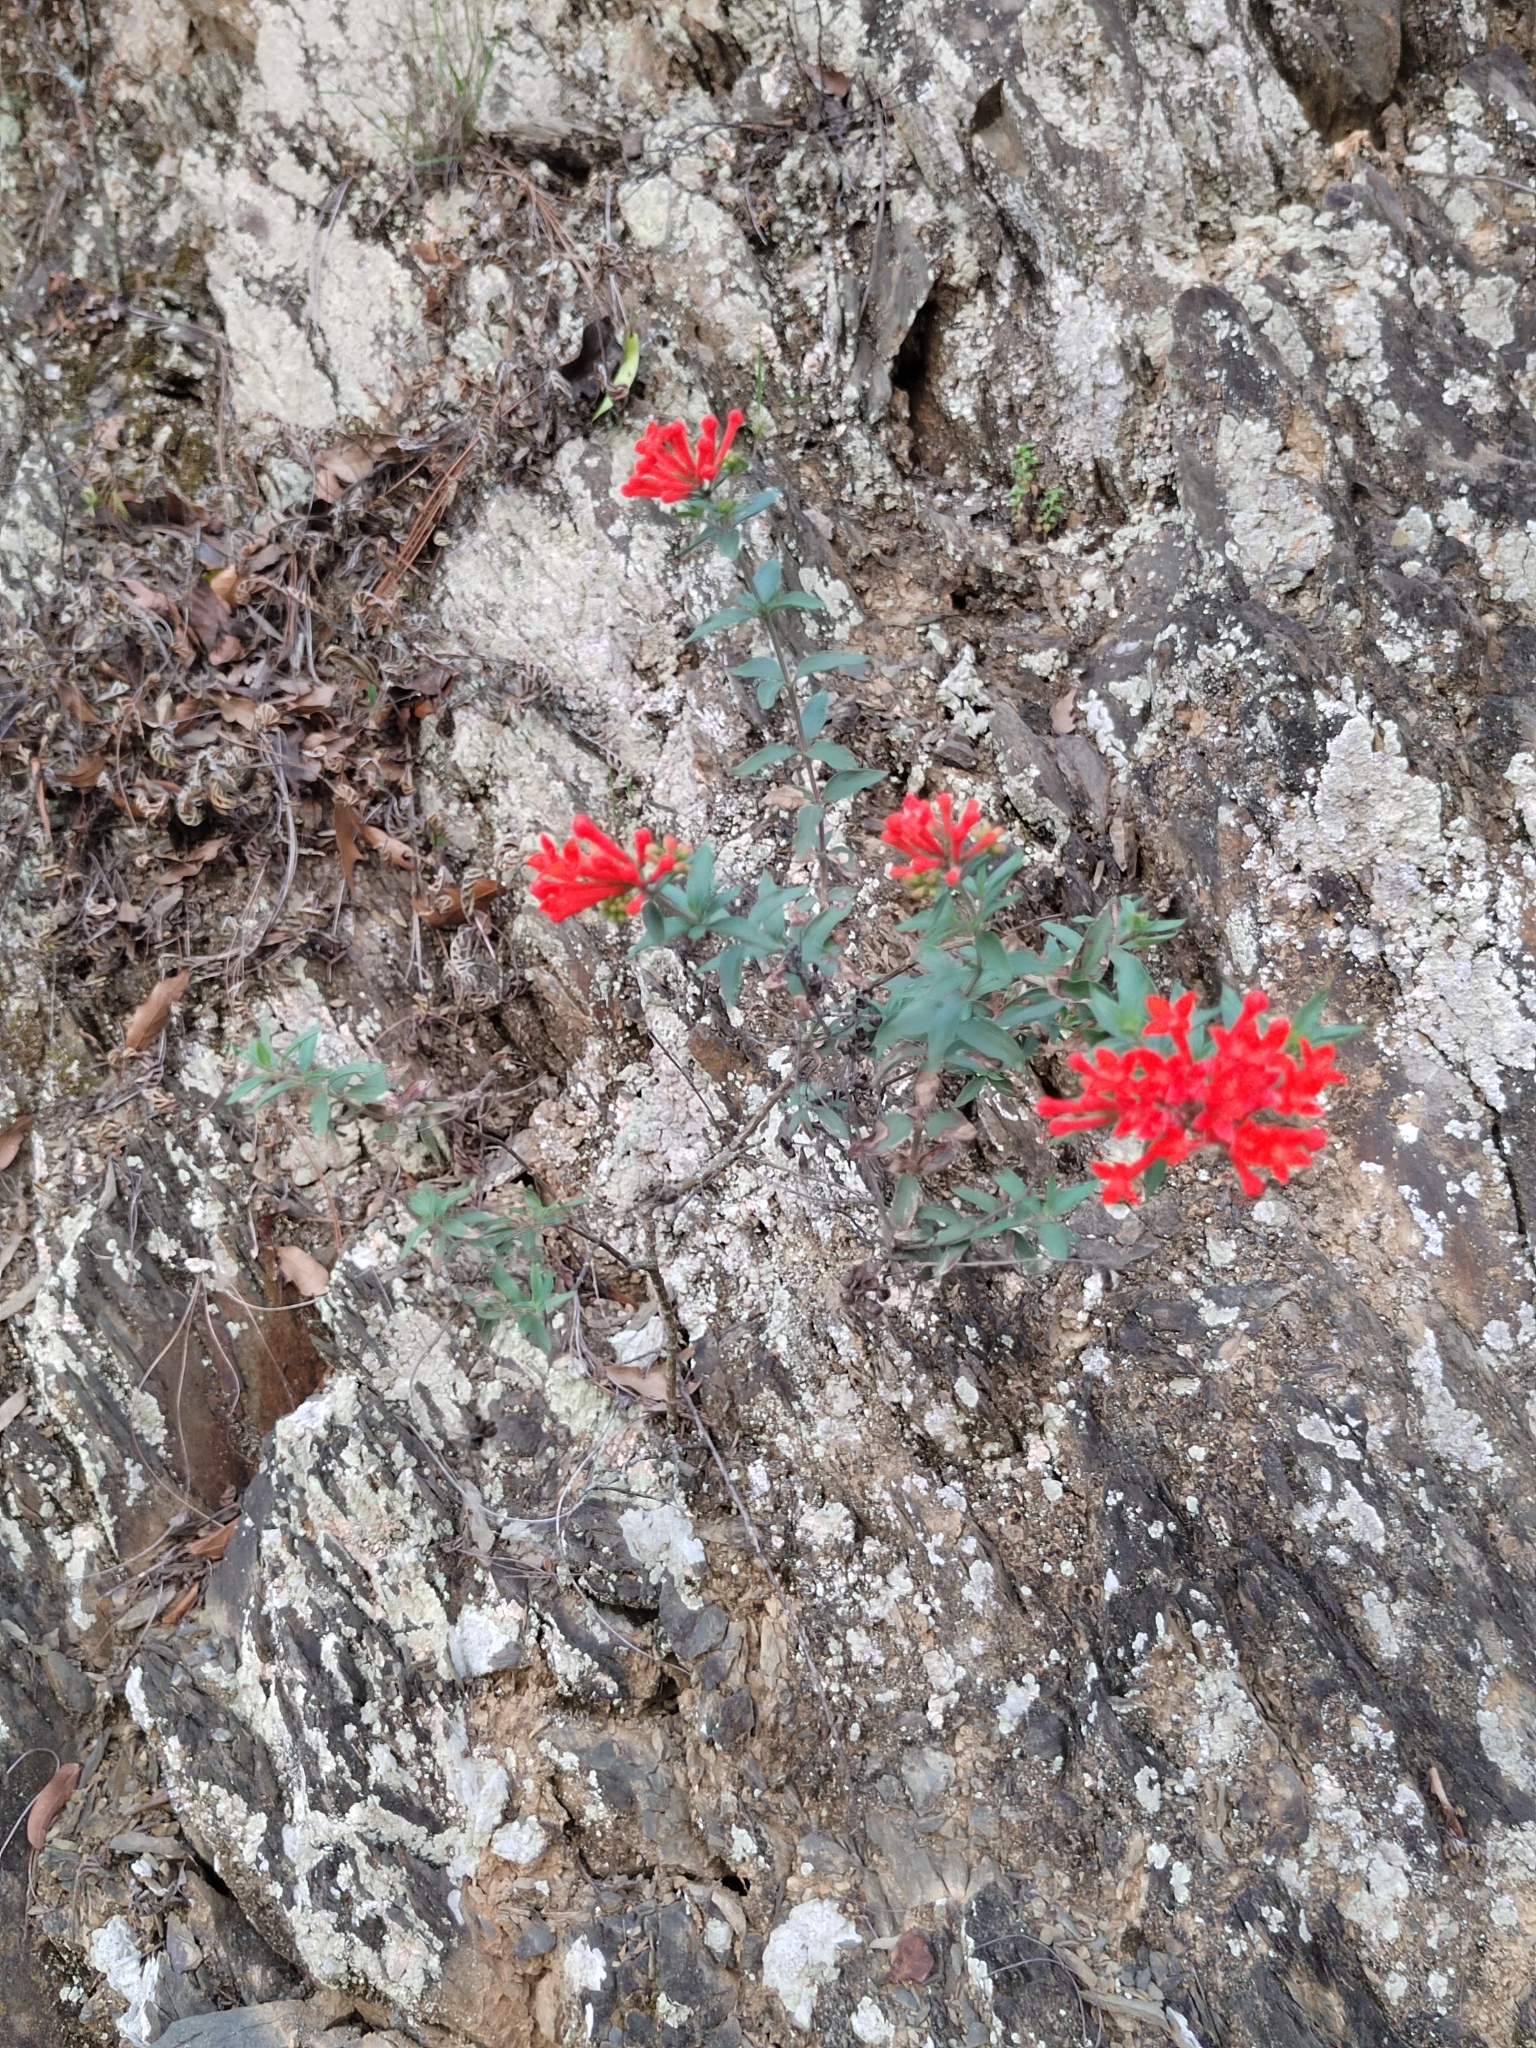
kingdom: Plantae
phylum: Tracheophyta
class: Magnoliopsida
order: Gentianales
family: Rubiaceae
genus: Bouvardia
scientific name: Bouvardia ternifolia
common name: Scarlet bouvardia
